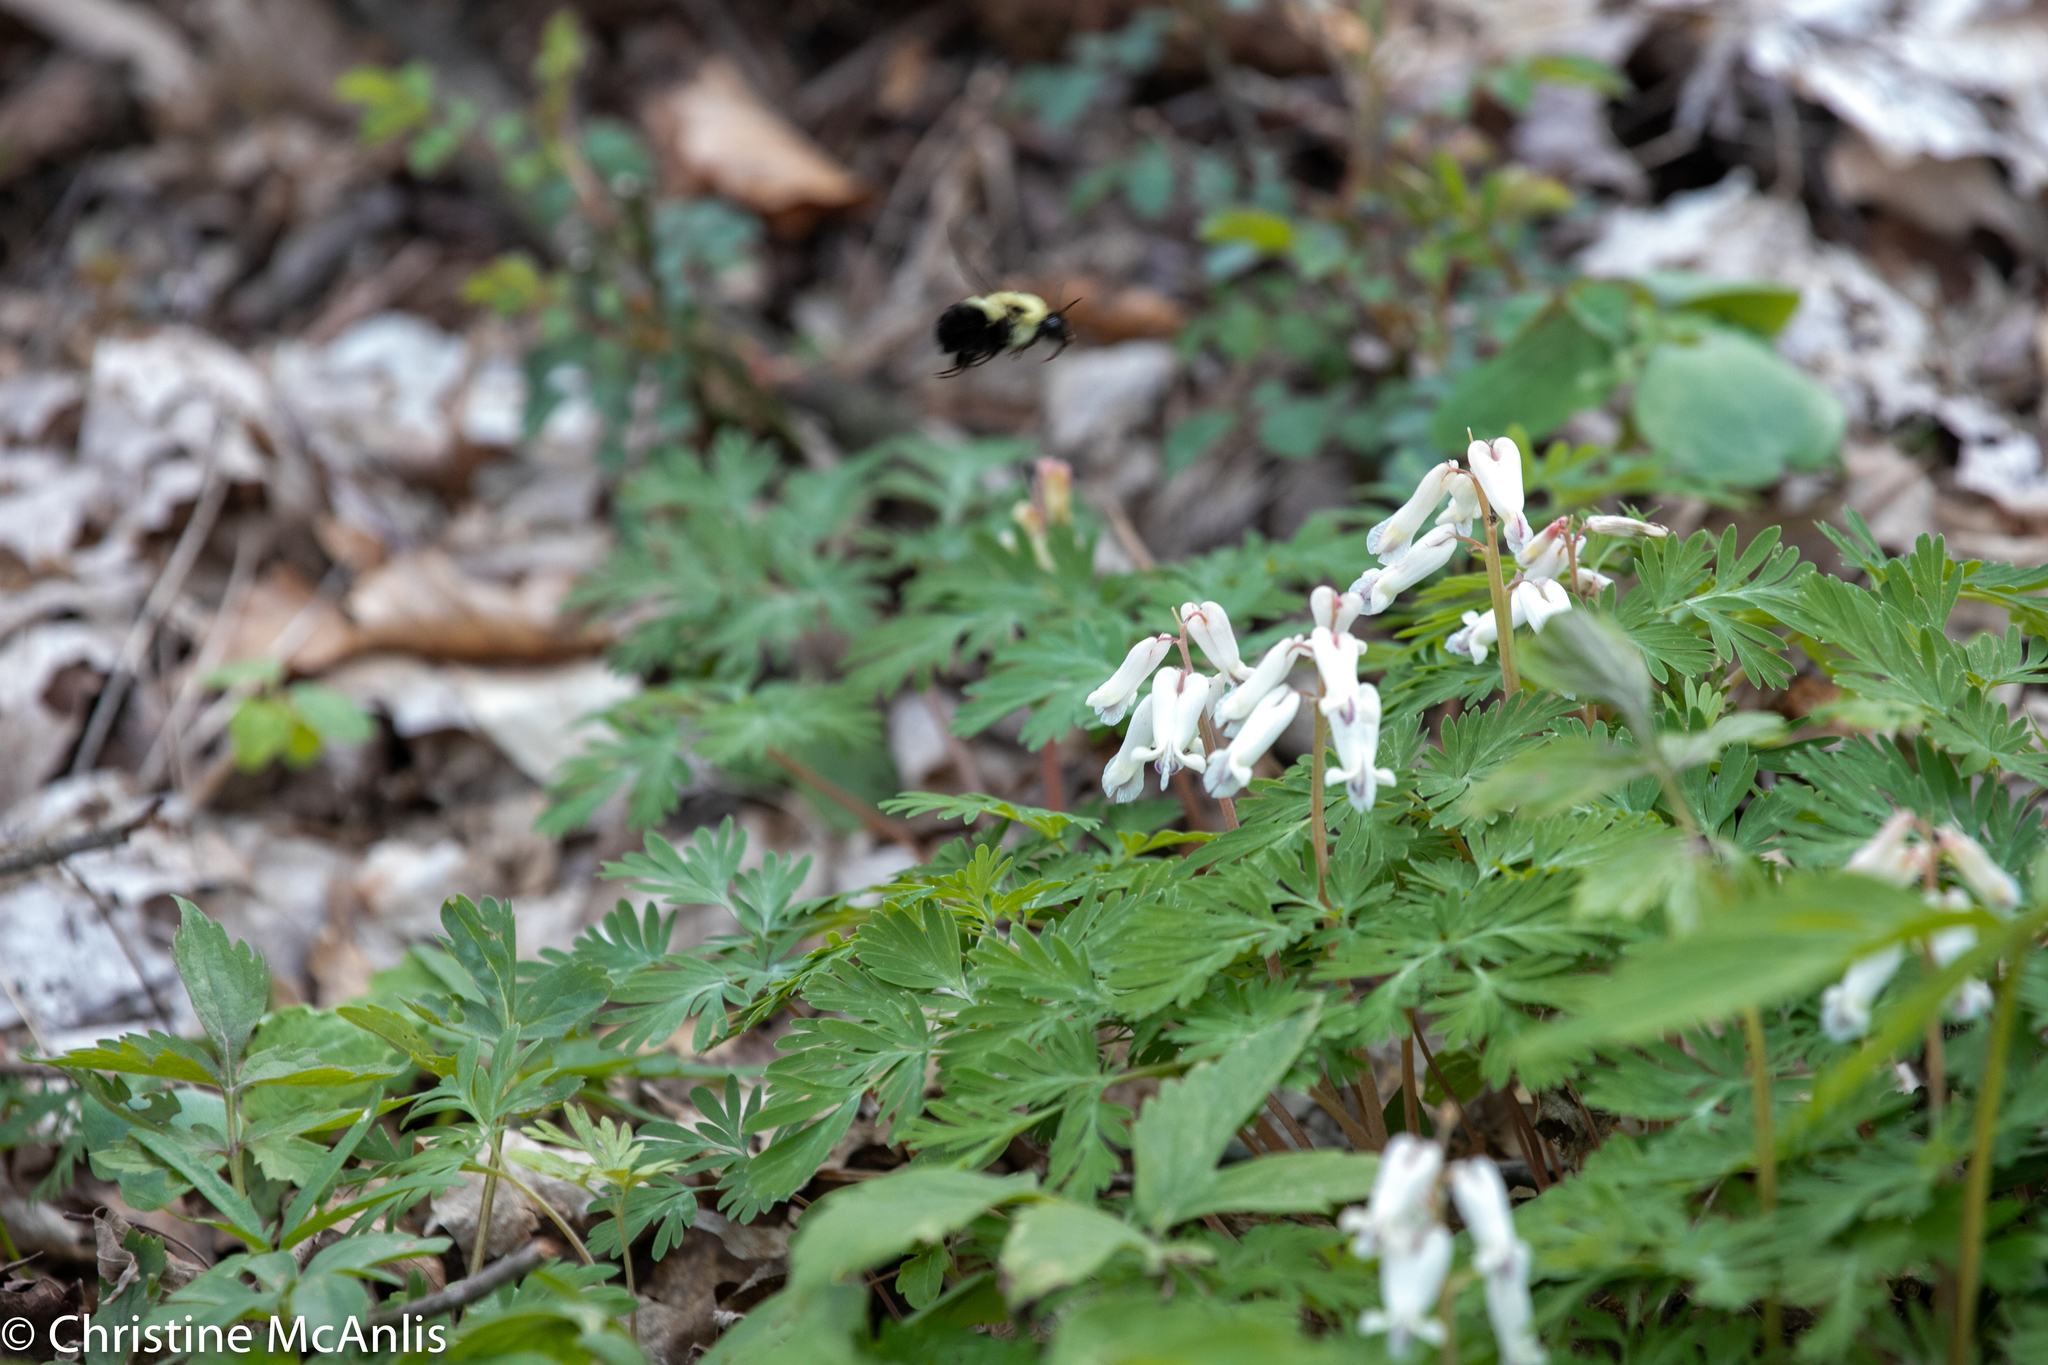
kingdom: Animalia
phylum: Arthropoda
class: Insecta
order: Hymenoptera
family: Apidae
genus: Bombus
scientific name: Bombus
